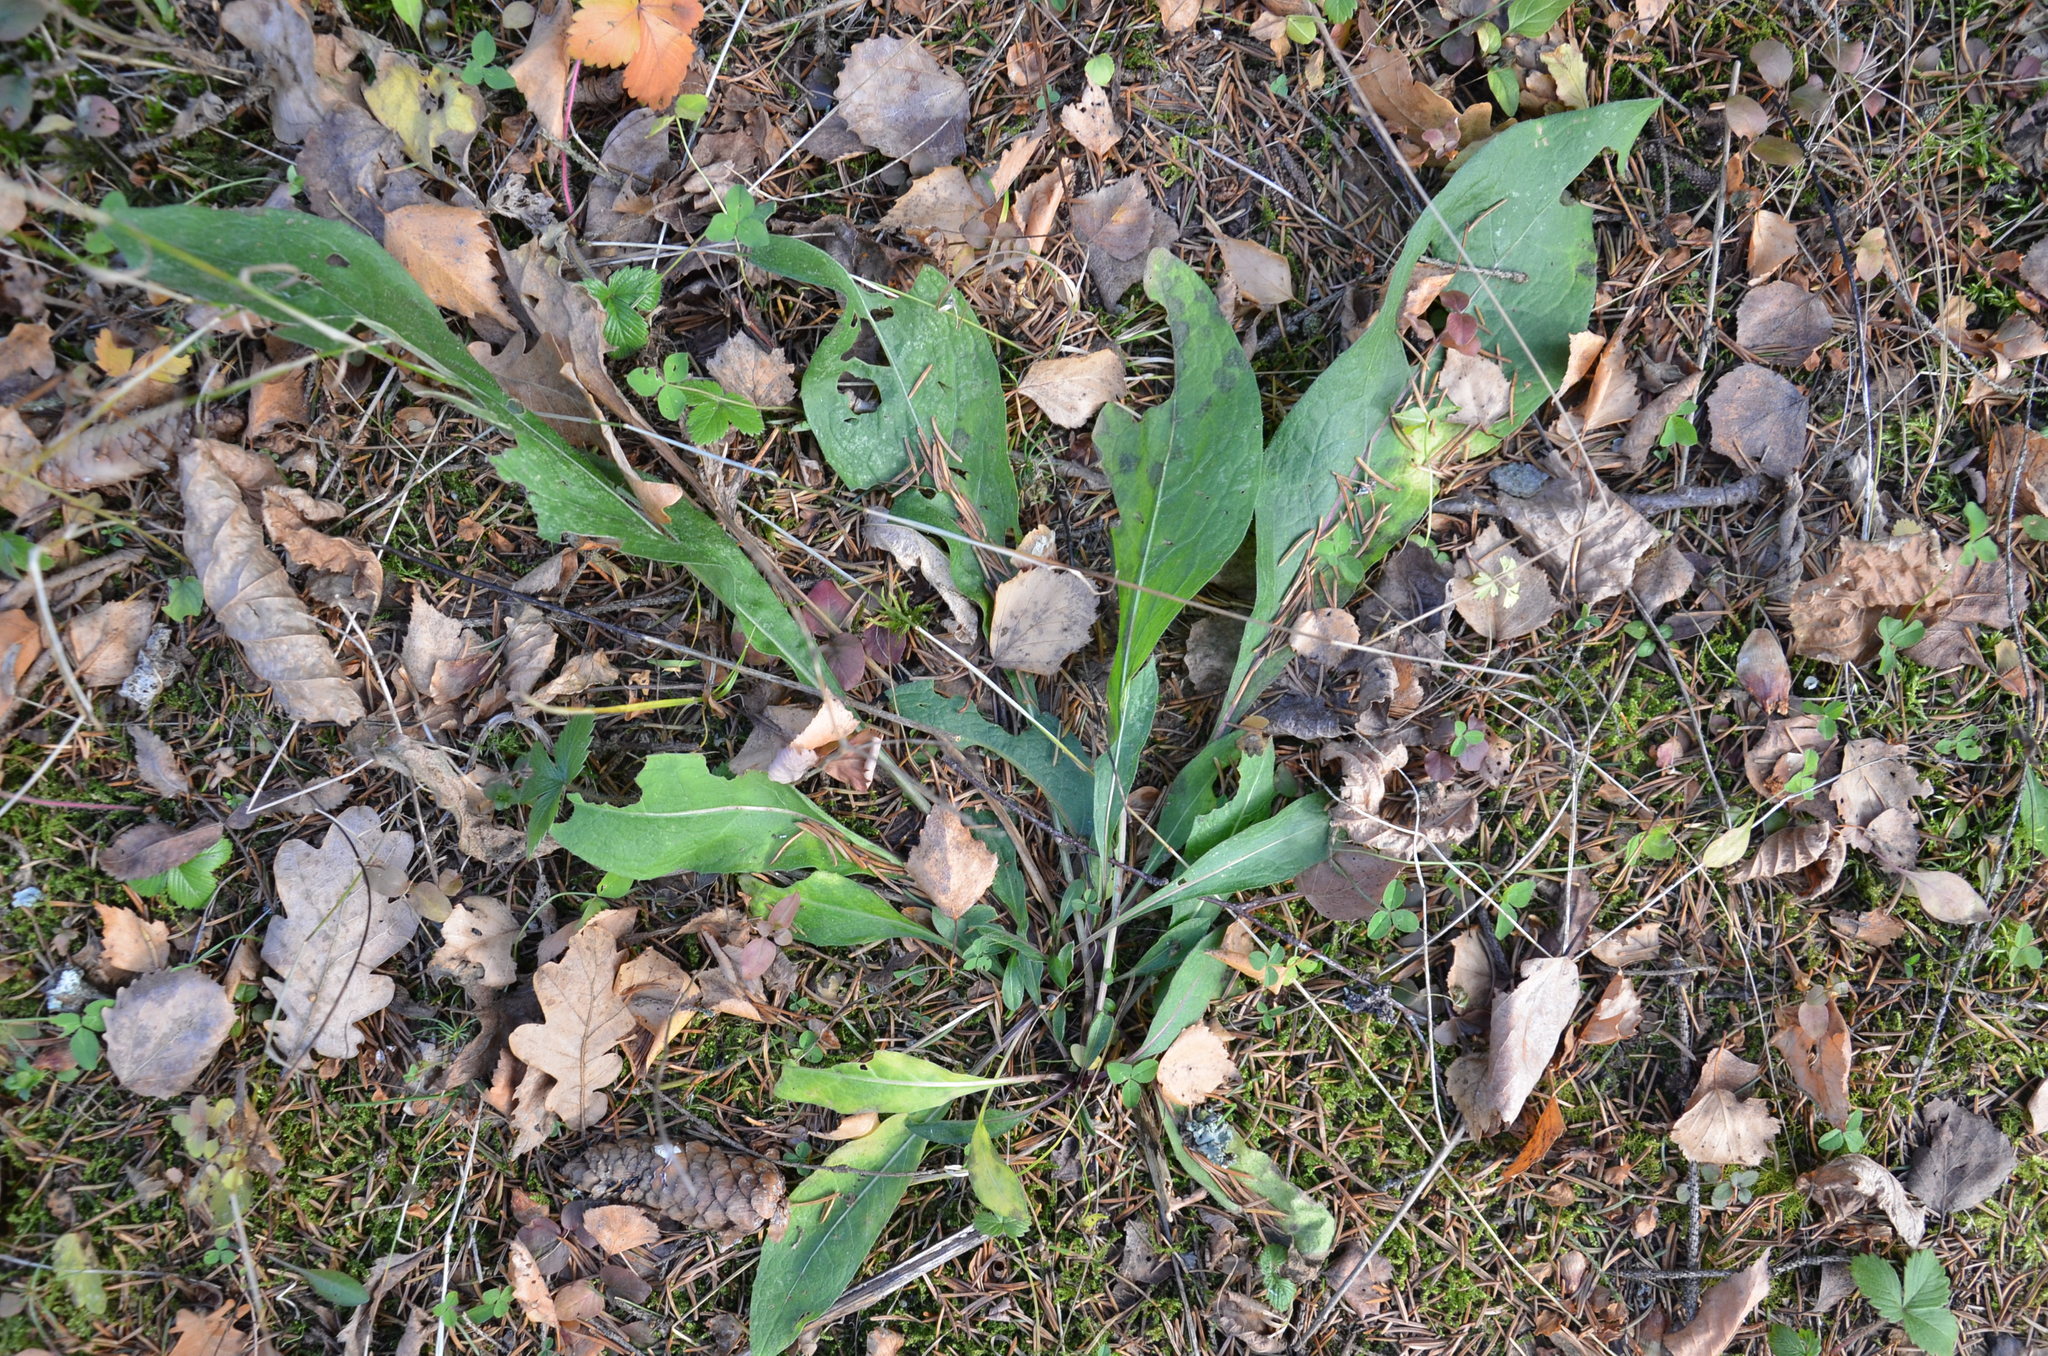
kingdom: Plantae
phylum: Tracheophyta
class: Magnoliopsida
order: Asterales
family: Asteraceae
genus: Solidago
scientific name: Solidago virgaurea
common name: Goldenrod
